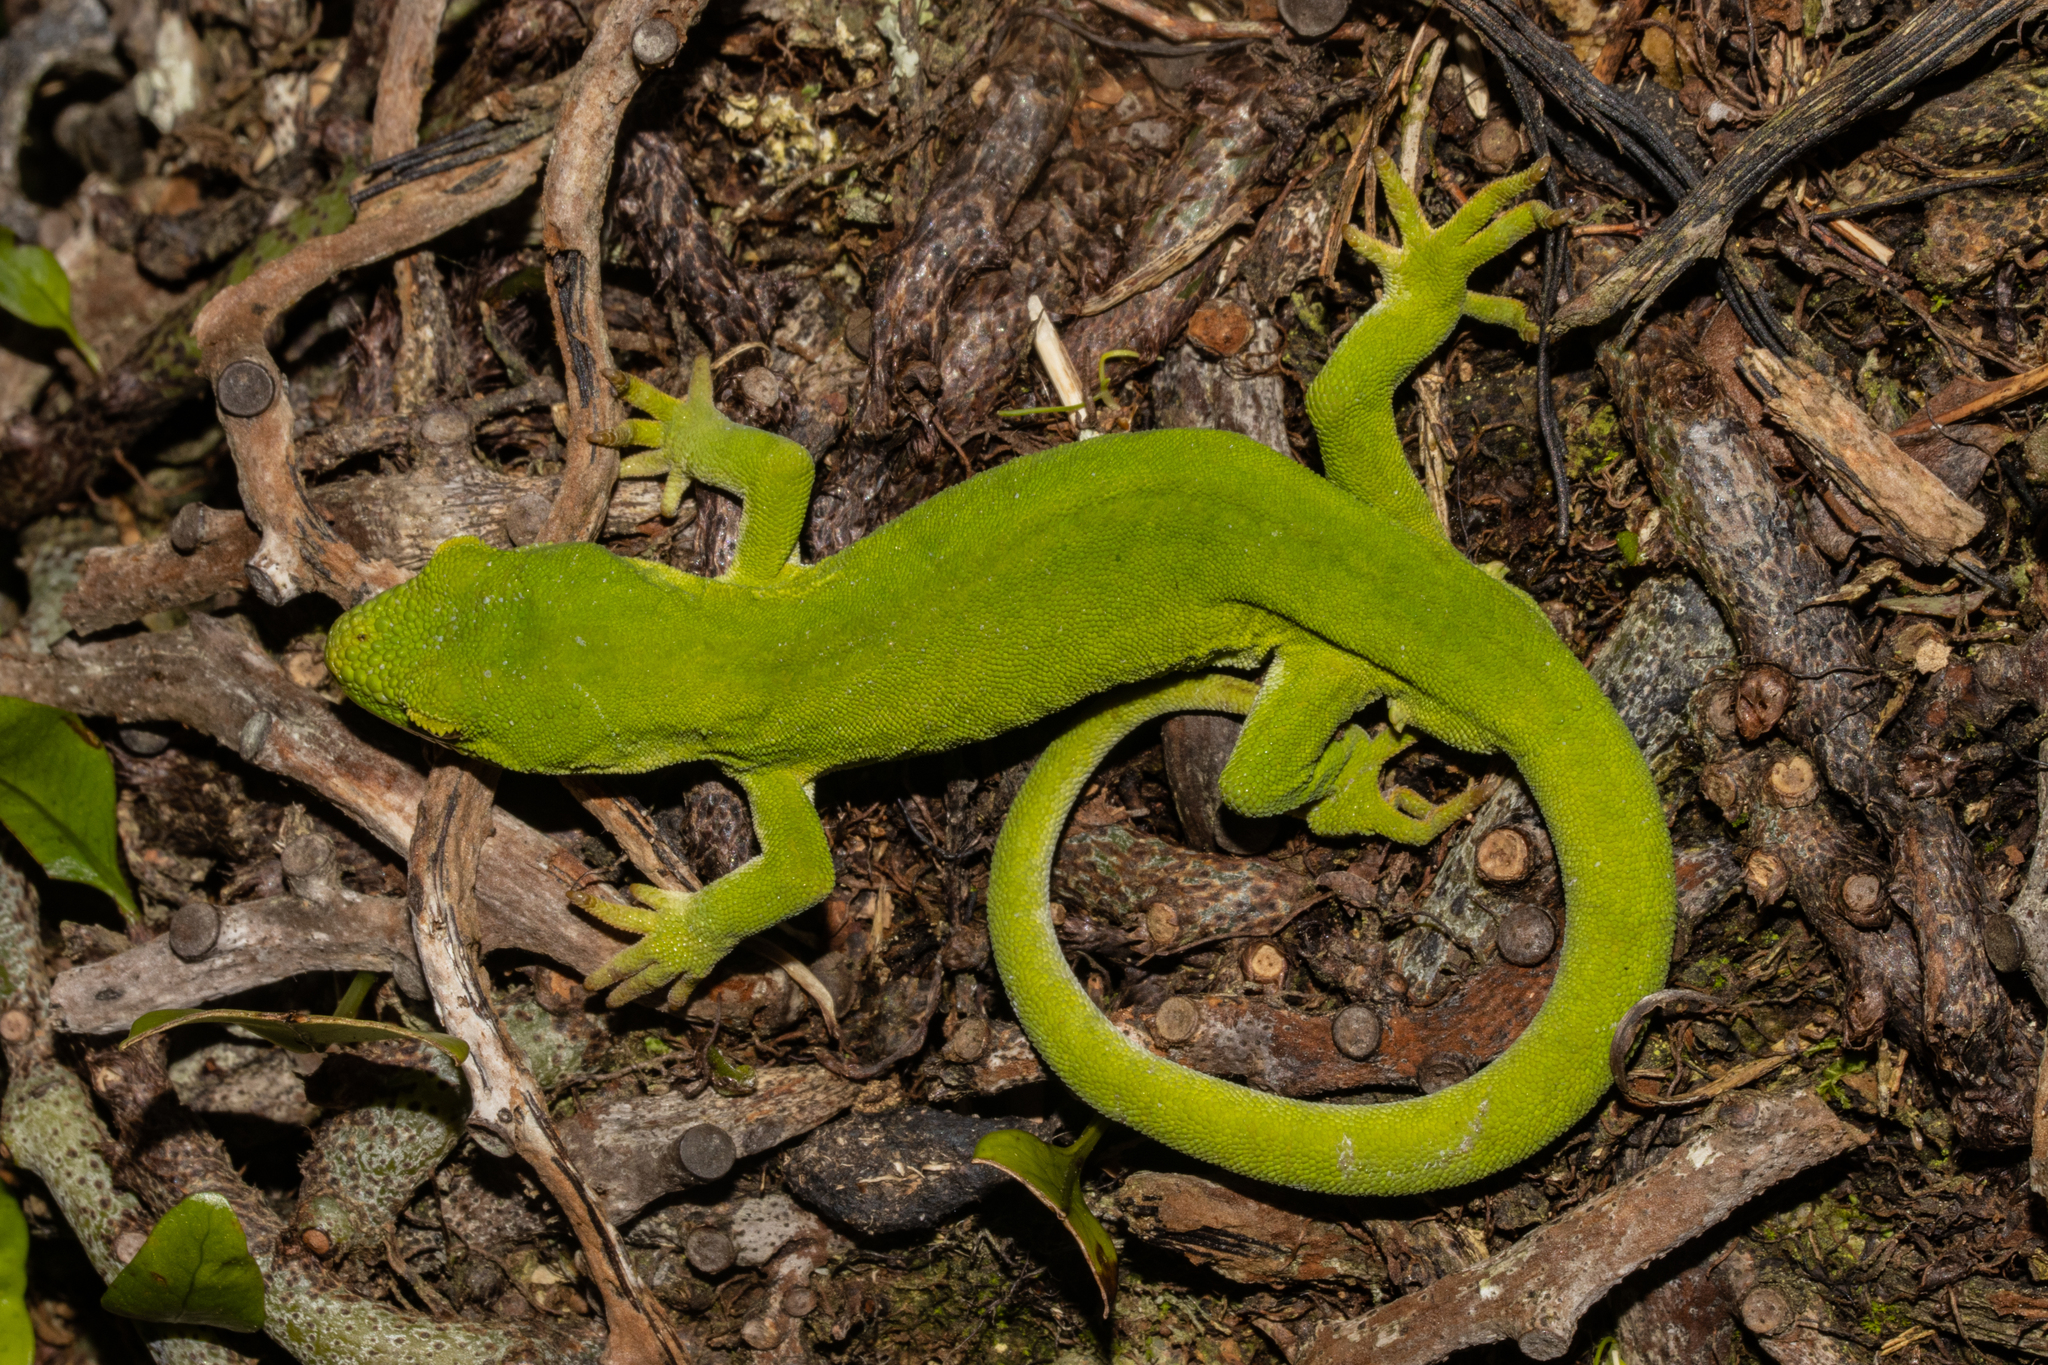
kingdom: Animalia
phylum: Chordata
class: Squamata
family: Diplodactylidae
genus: Naultinus
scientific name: Naultinus manukanus
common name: Marlborough green gecko
